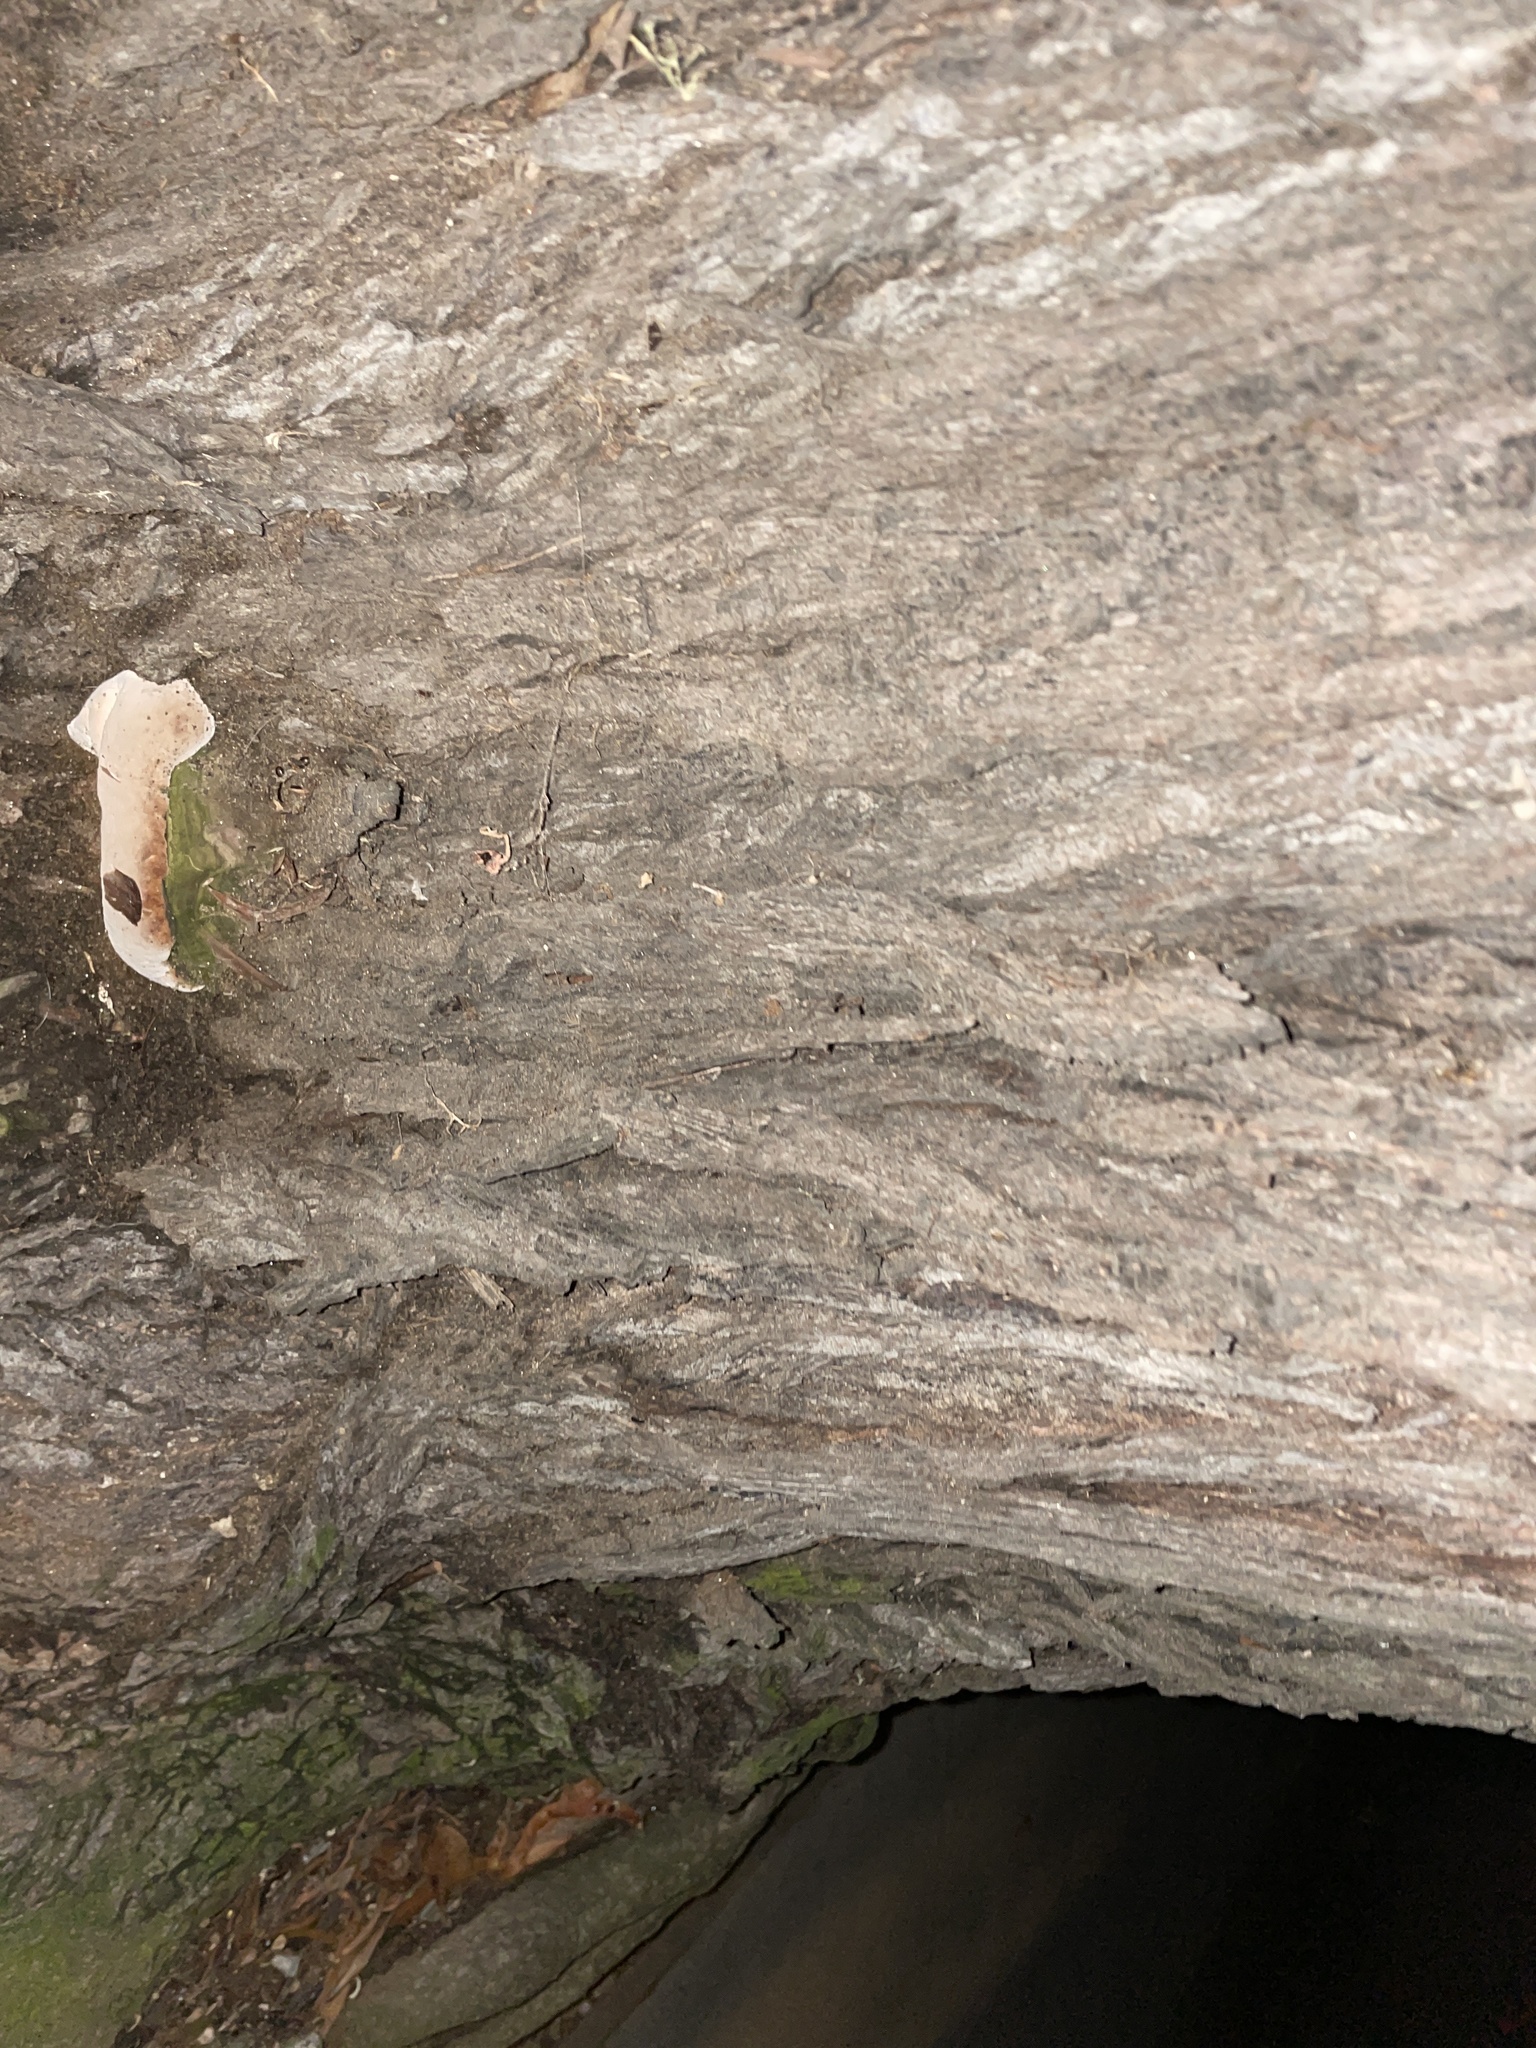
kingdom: Fungi
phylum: Basidiomycota
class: Agaricomycetes
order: Hymenochaetales
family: Hymenochaetaceae
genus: Pseudoinonotus
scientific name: Pseudoinonotus dryadeus
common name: Oak bracket
